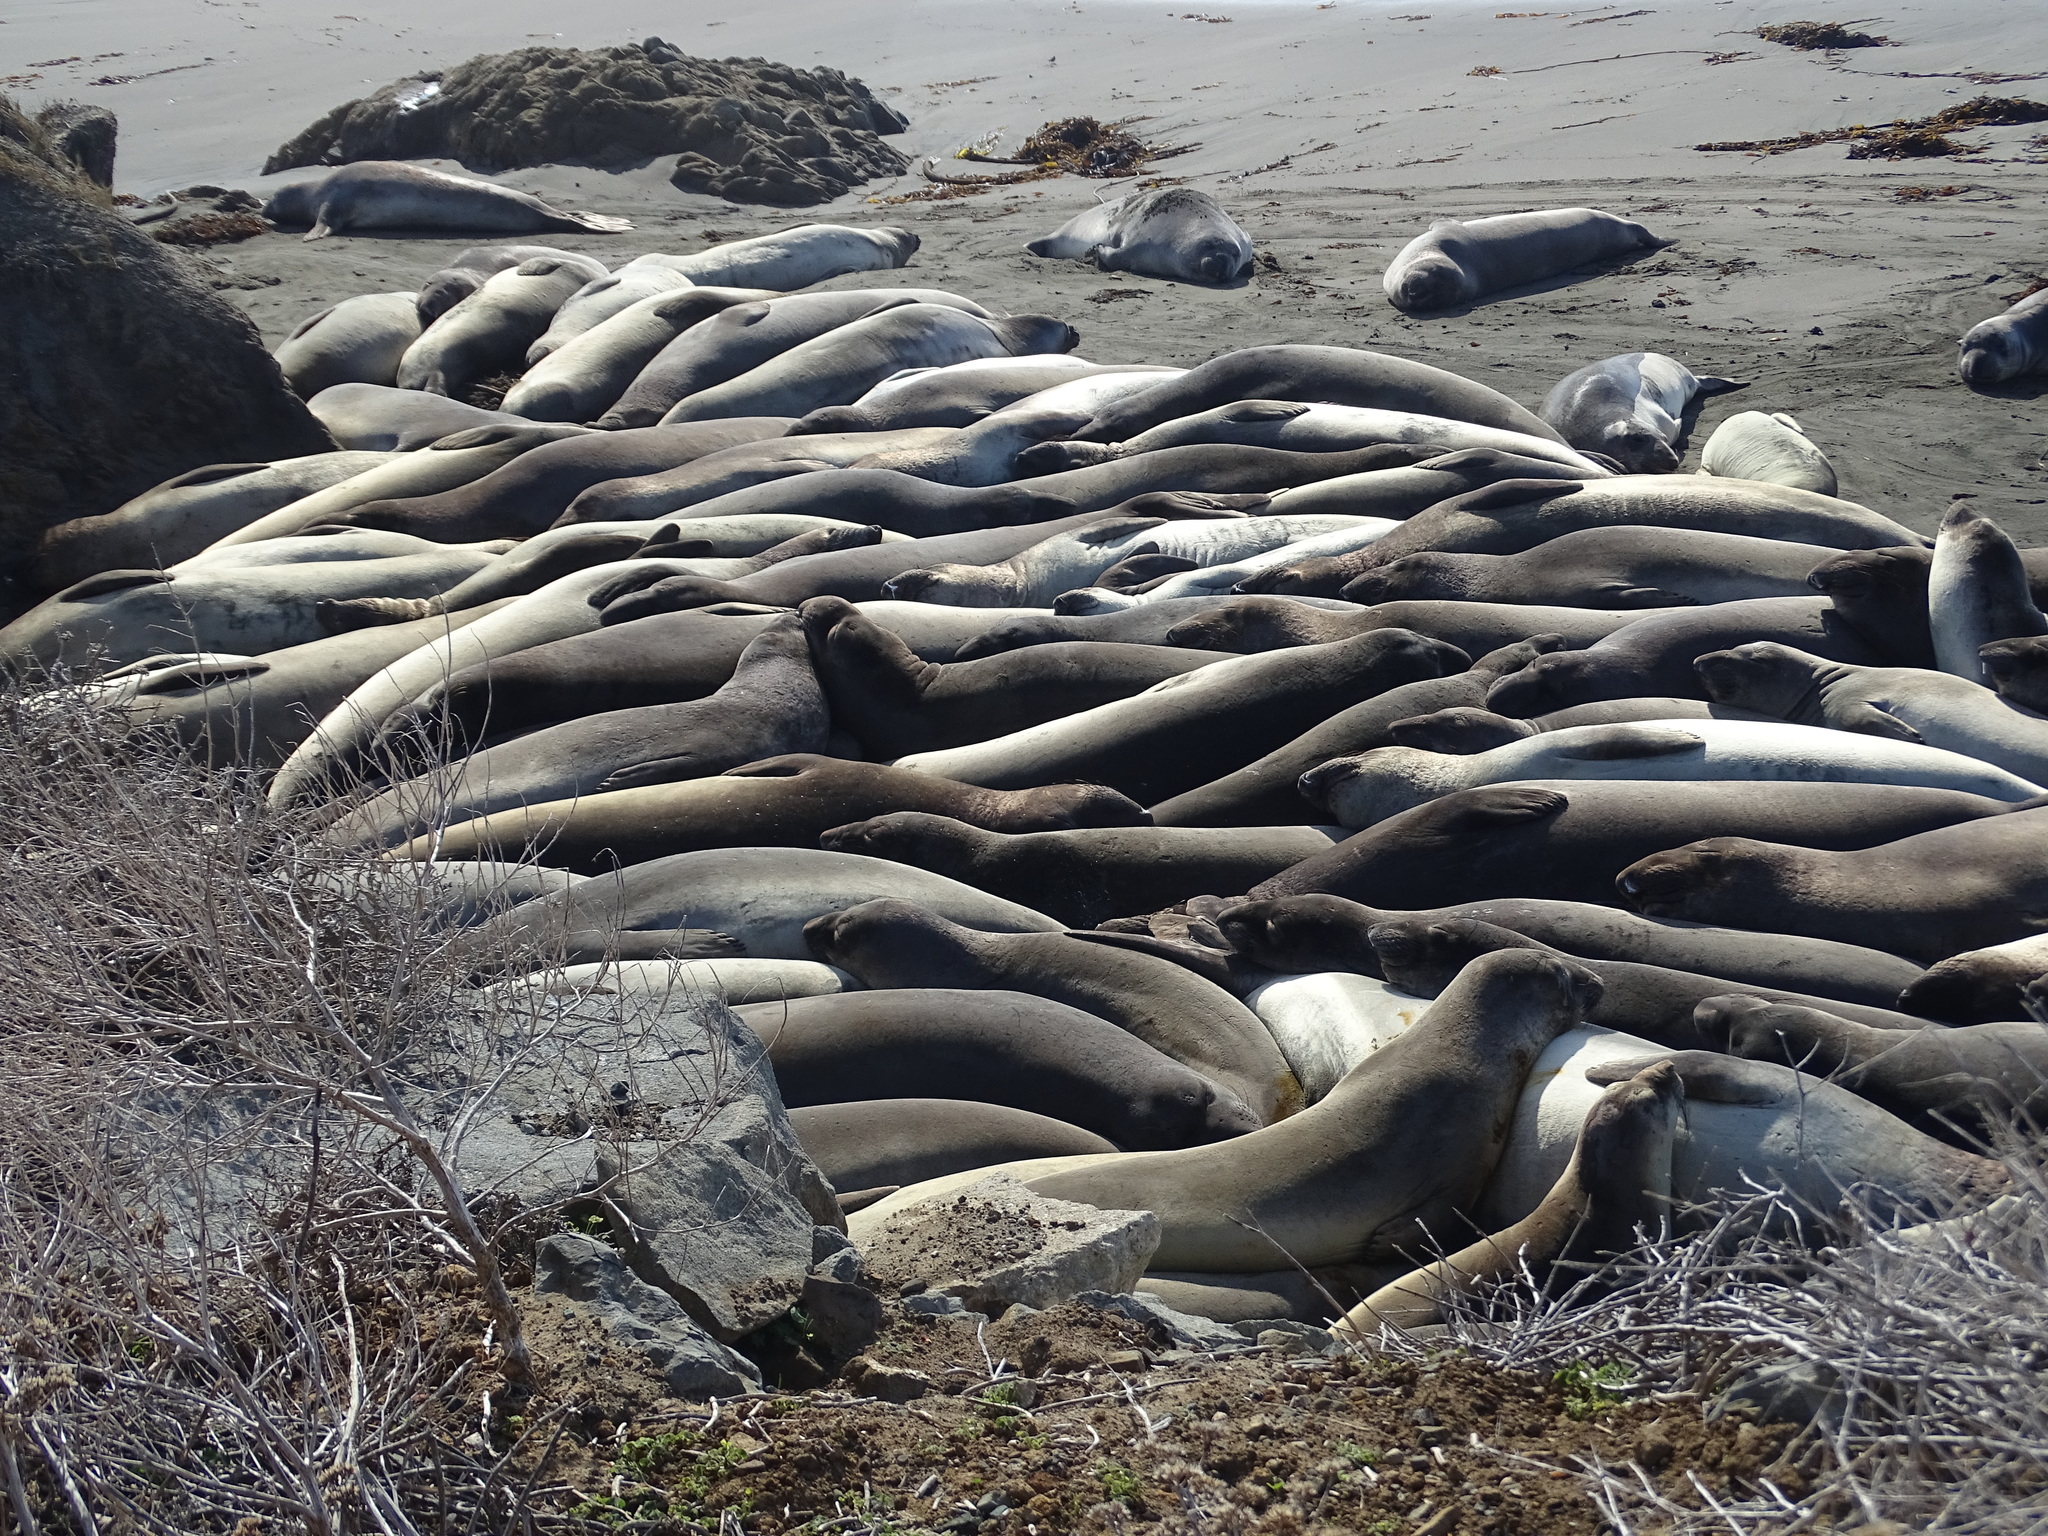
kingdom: Animalia
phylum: Chordata
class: Mammalia
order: Carnivora
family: Phocidae
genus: Mirounga
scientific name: Mirounga angustirostris
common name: Northern elephant seal
